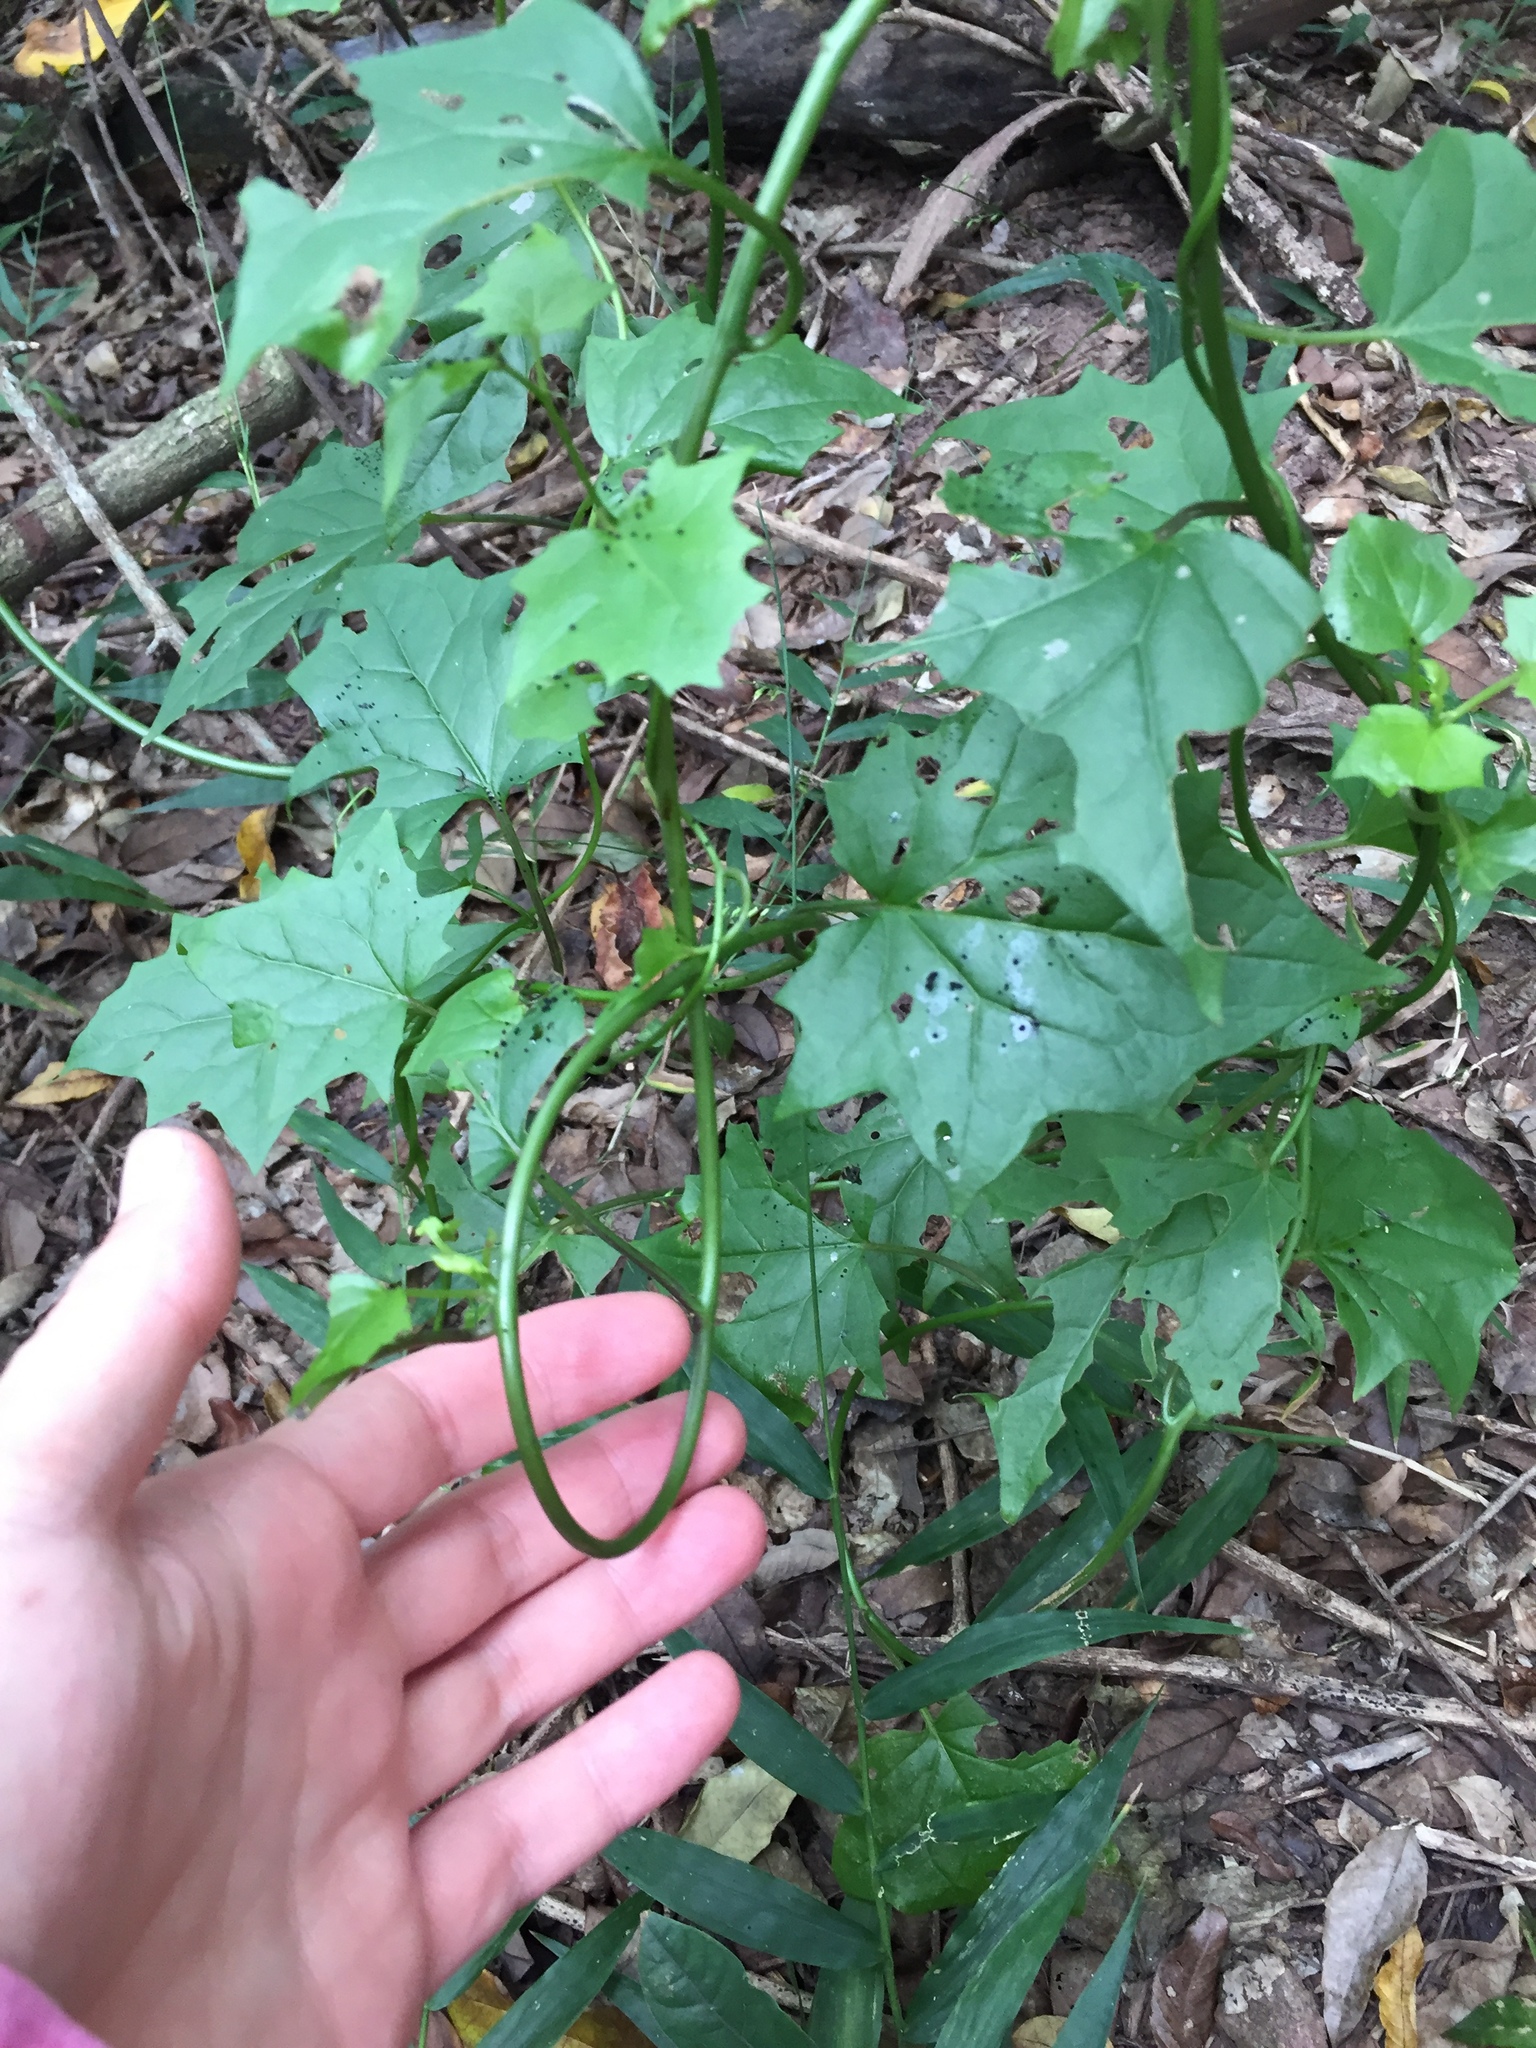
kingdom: Plantae
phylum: Tracheophyta
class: Magnoliopsida
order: Asterales
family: Asteraceae
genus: Senecio
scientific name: Senecio tamoides
